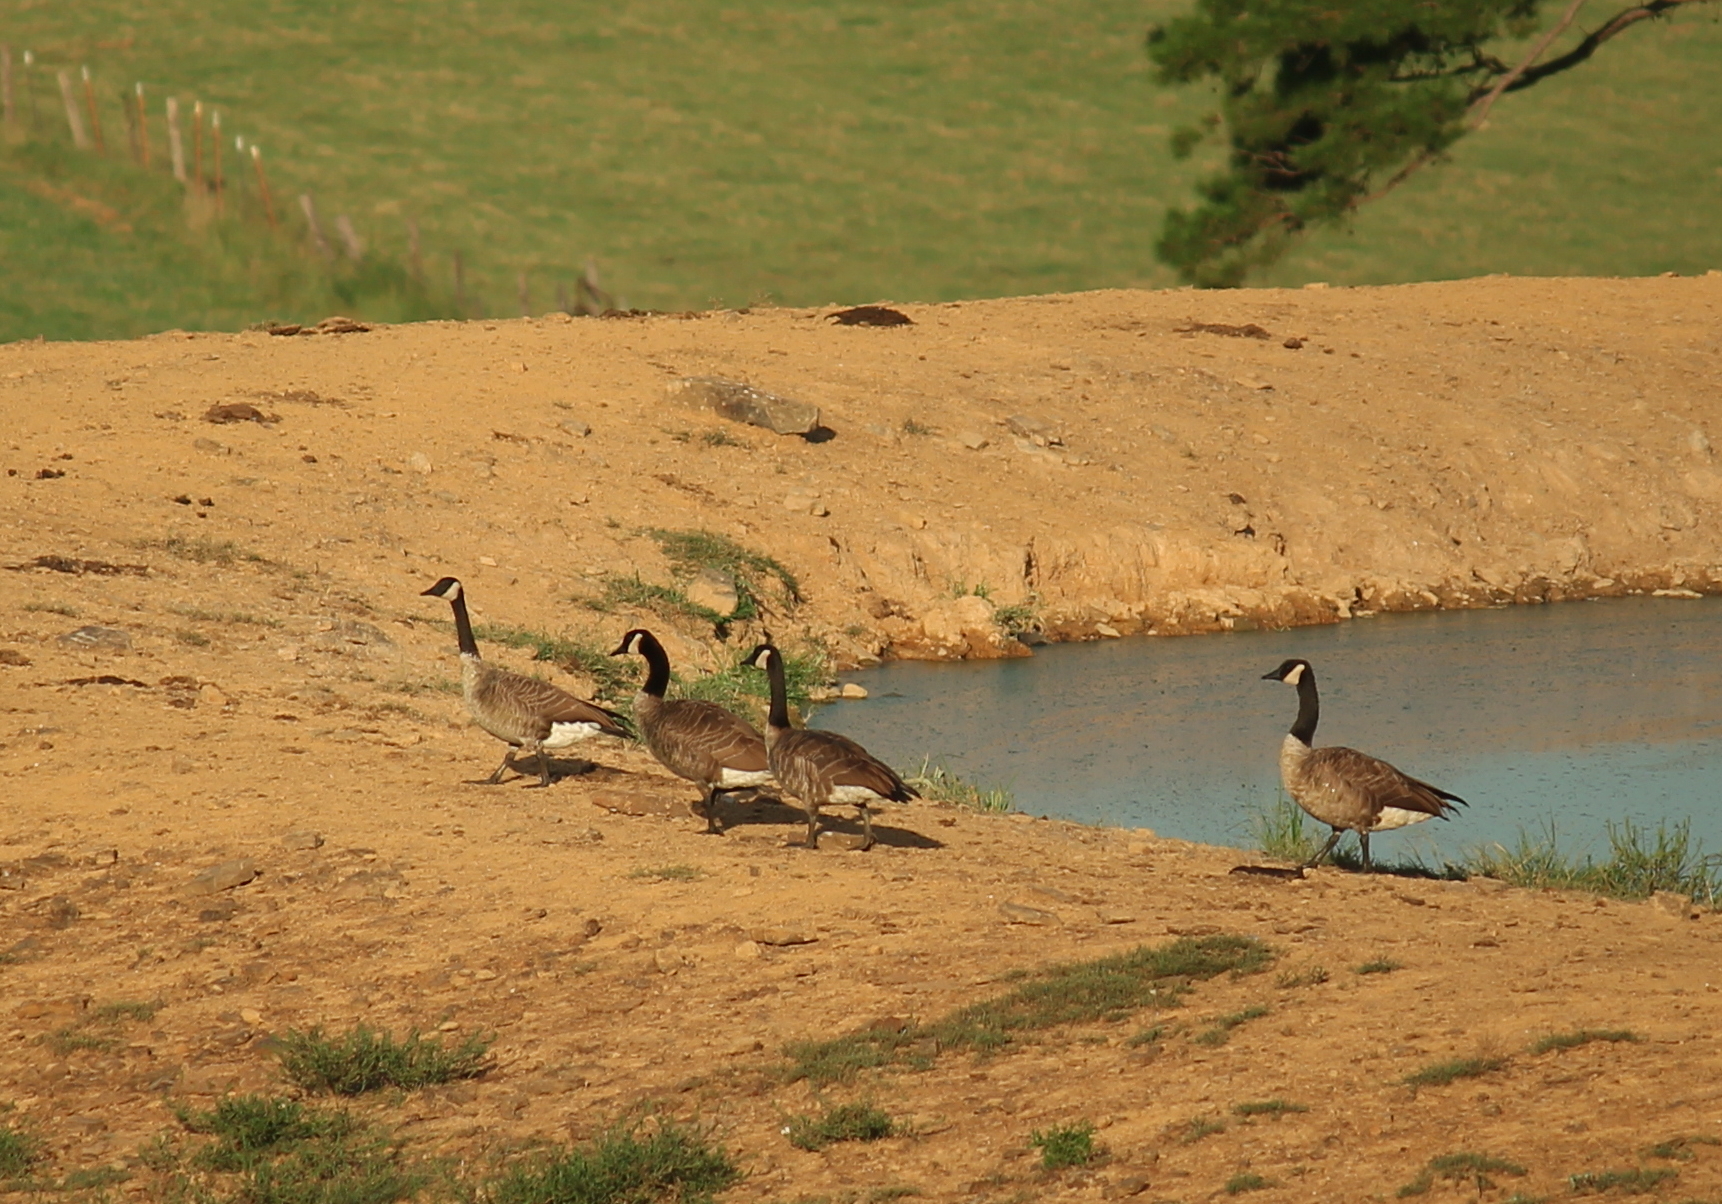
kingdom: Animalia
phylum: Chordata
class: Aves
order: Anseriformes
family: Anatidae
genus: Branta
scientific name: Branta canadensis
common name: Canada goose
